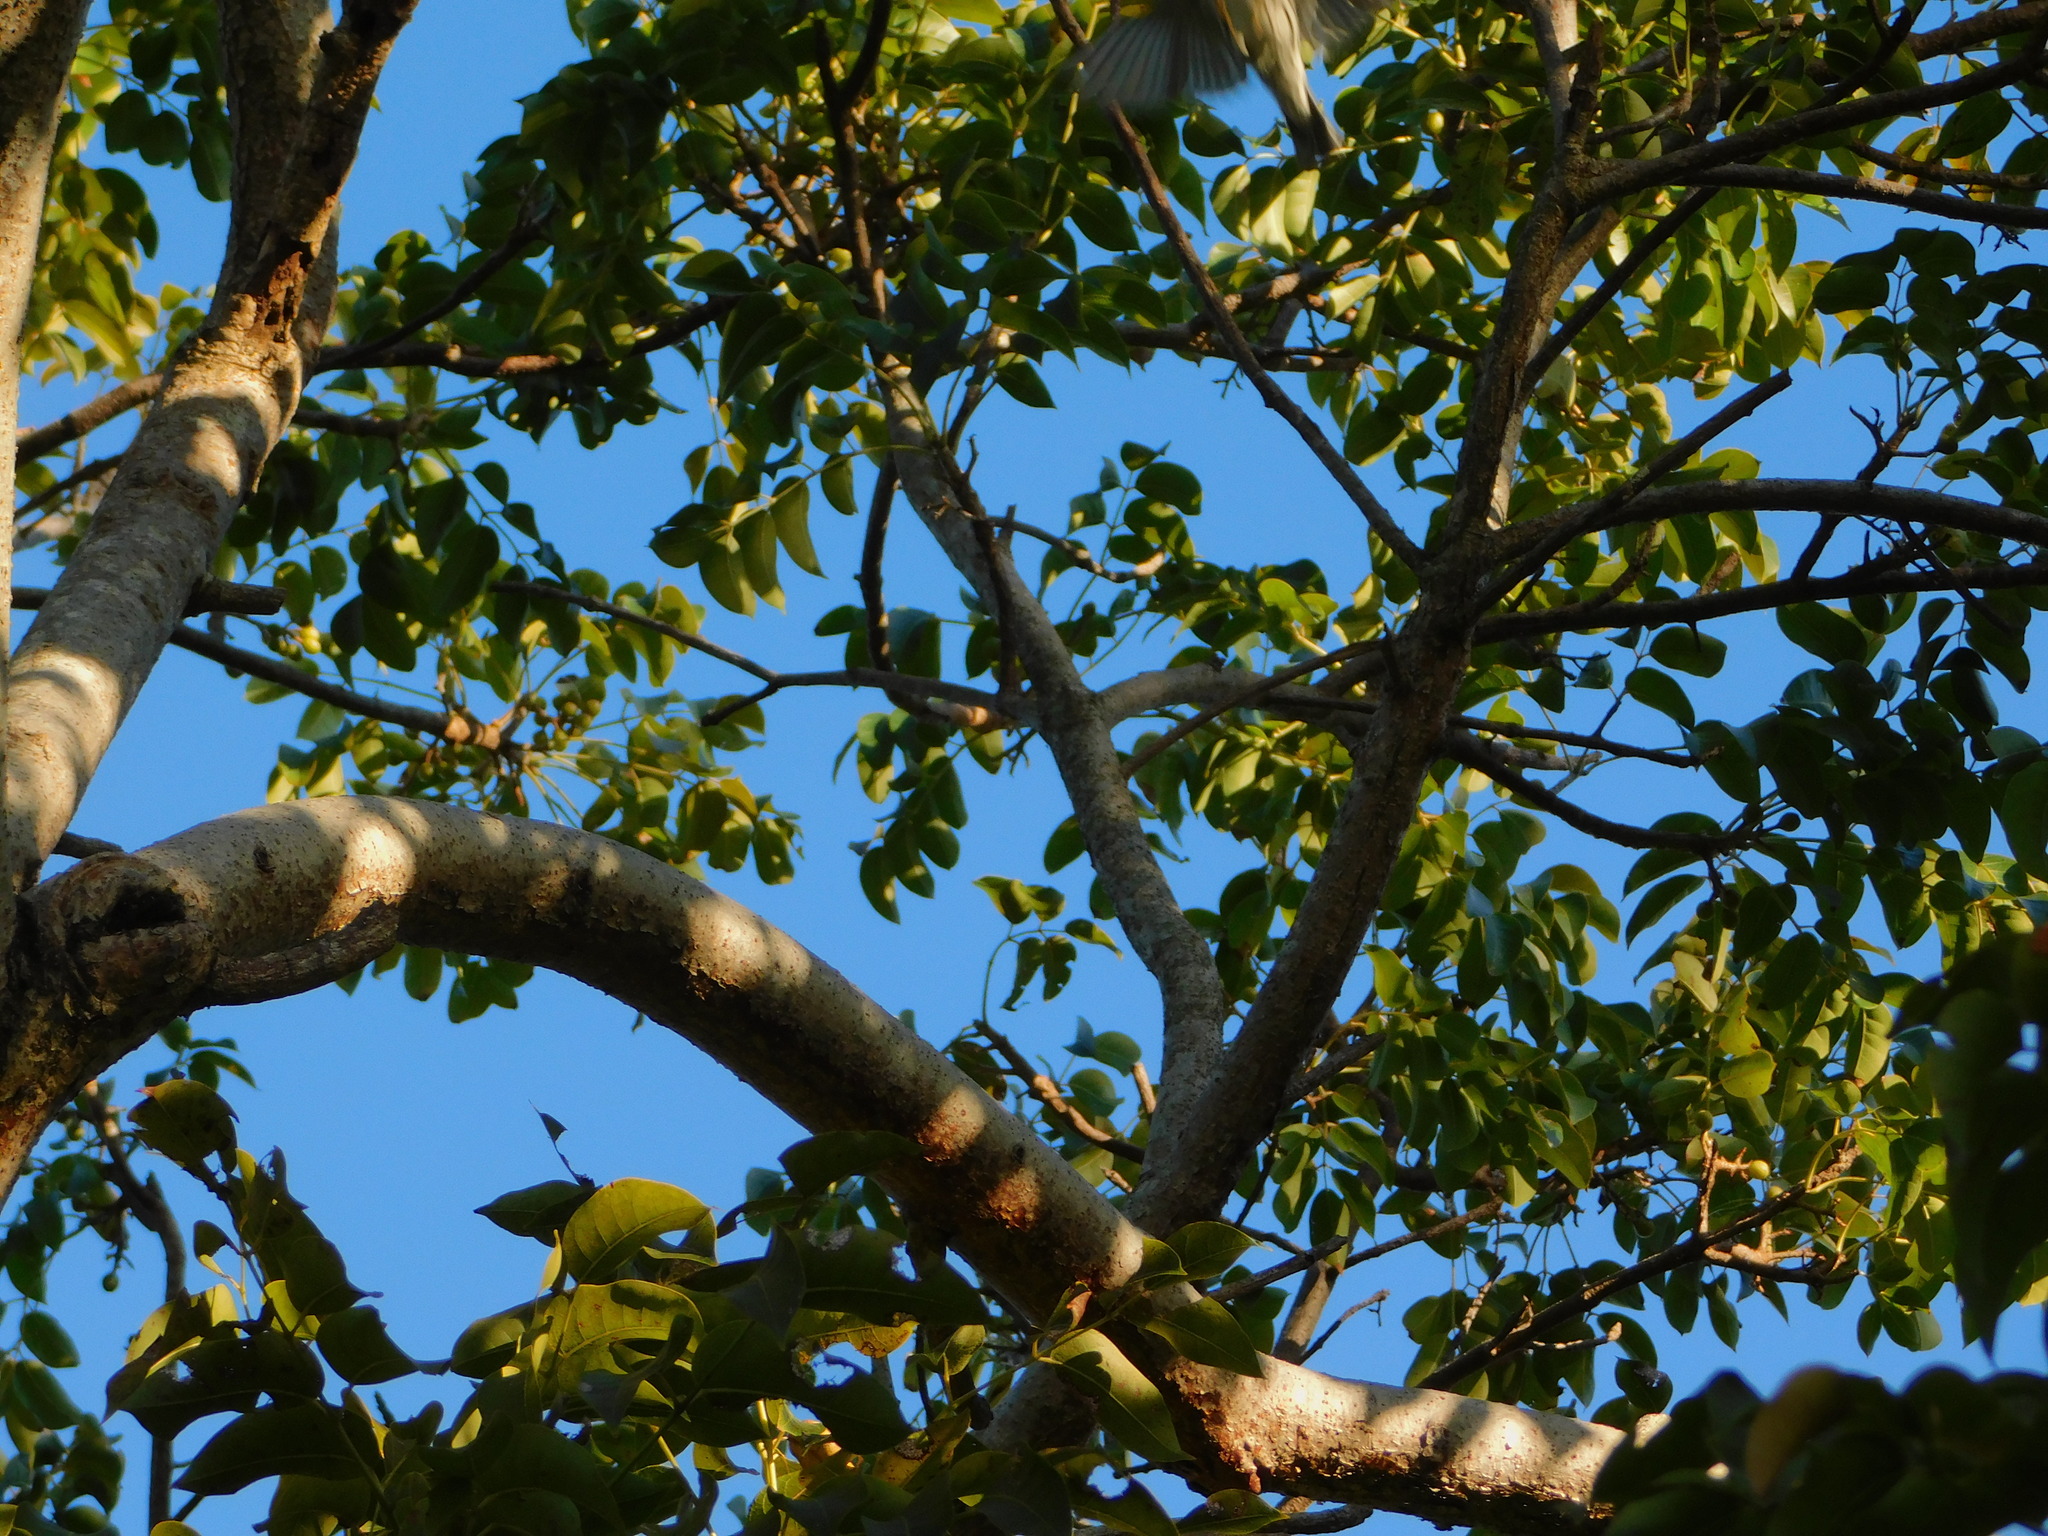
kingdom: Animalia
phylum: Chordata
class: Aves
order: Passeriformes
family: Parulidae
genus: Mniotilta
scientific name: Mniotilta varia
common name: Black-and-white warbler
